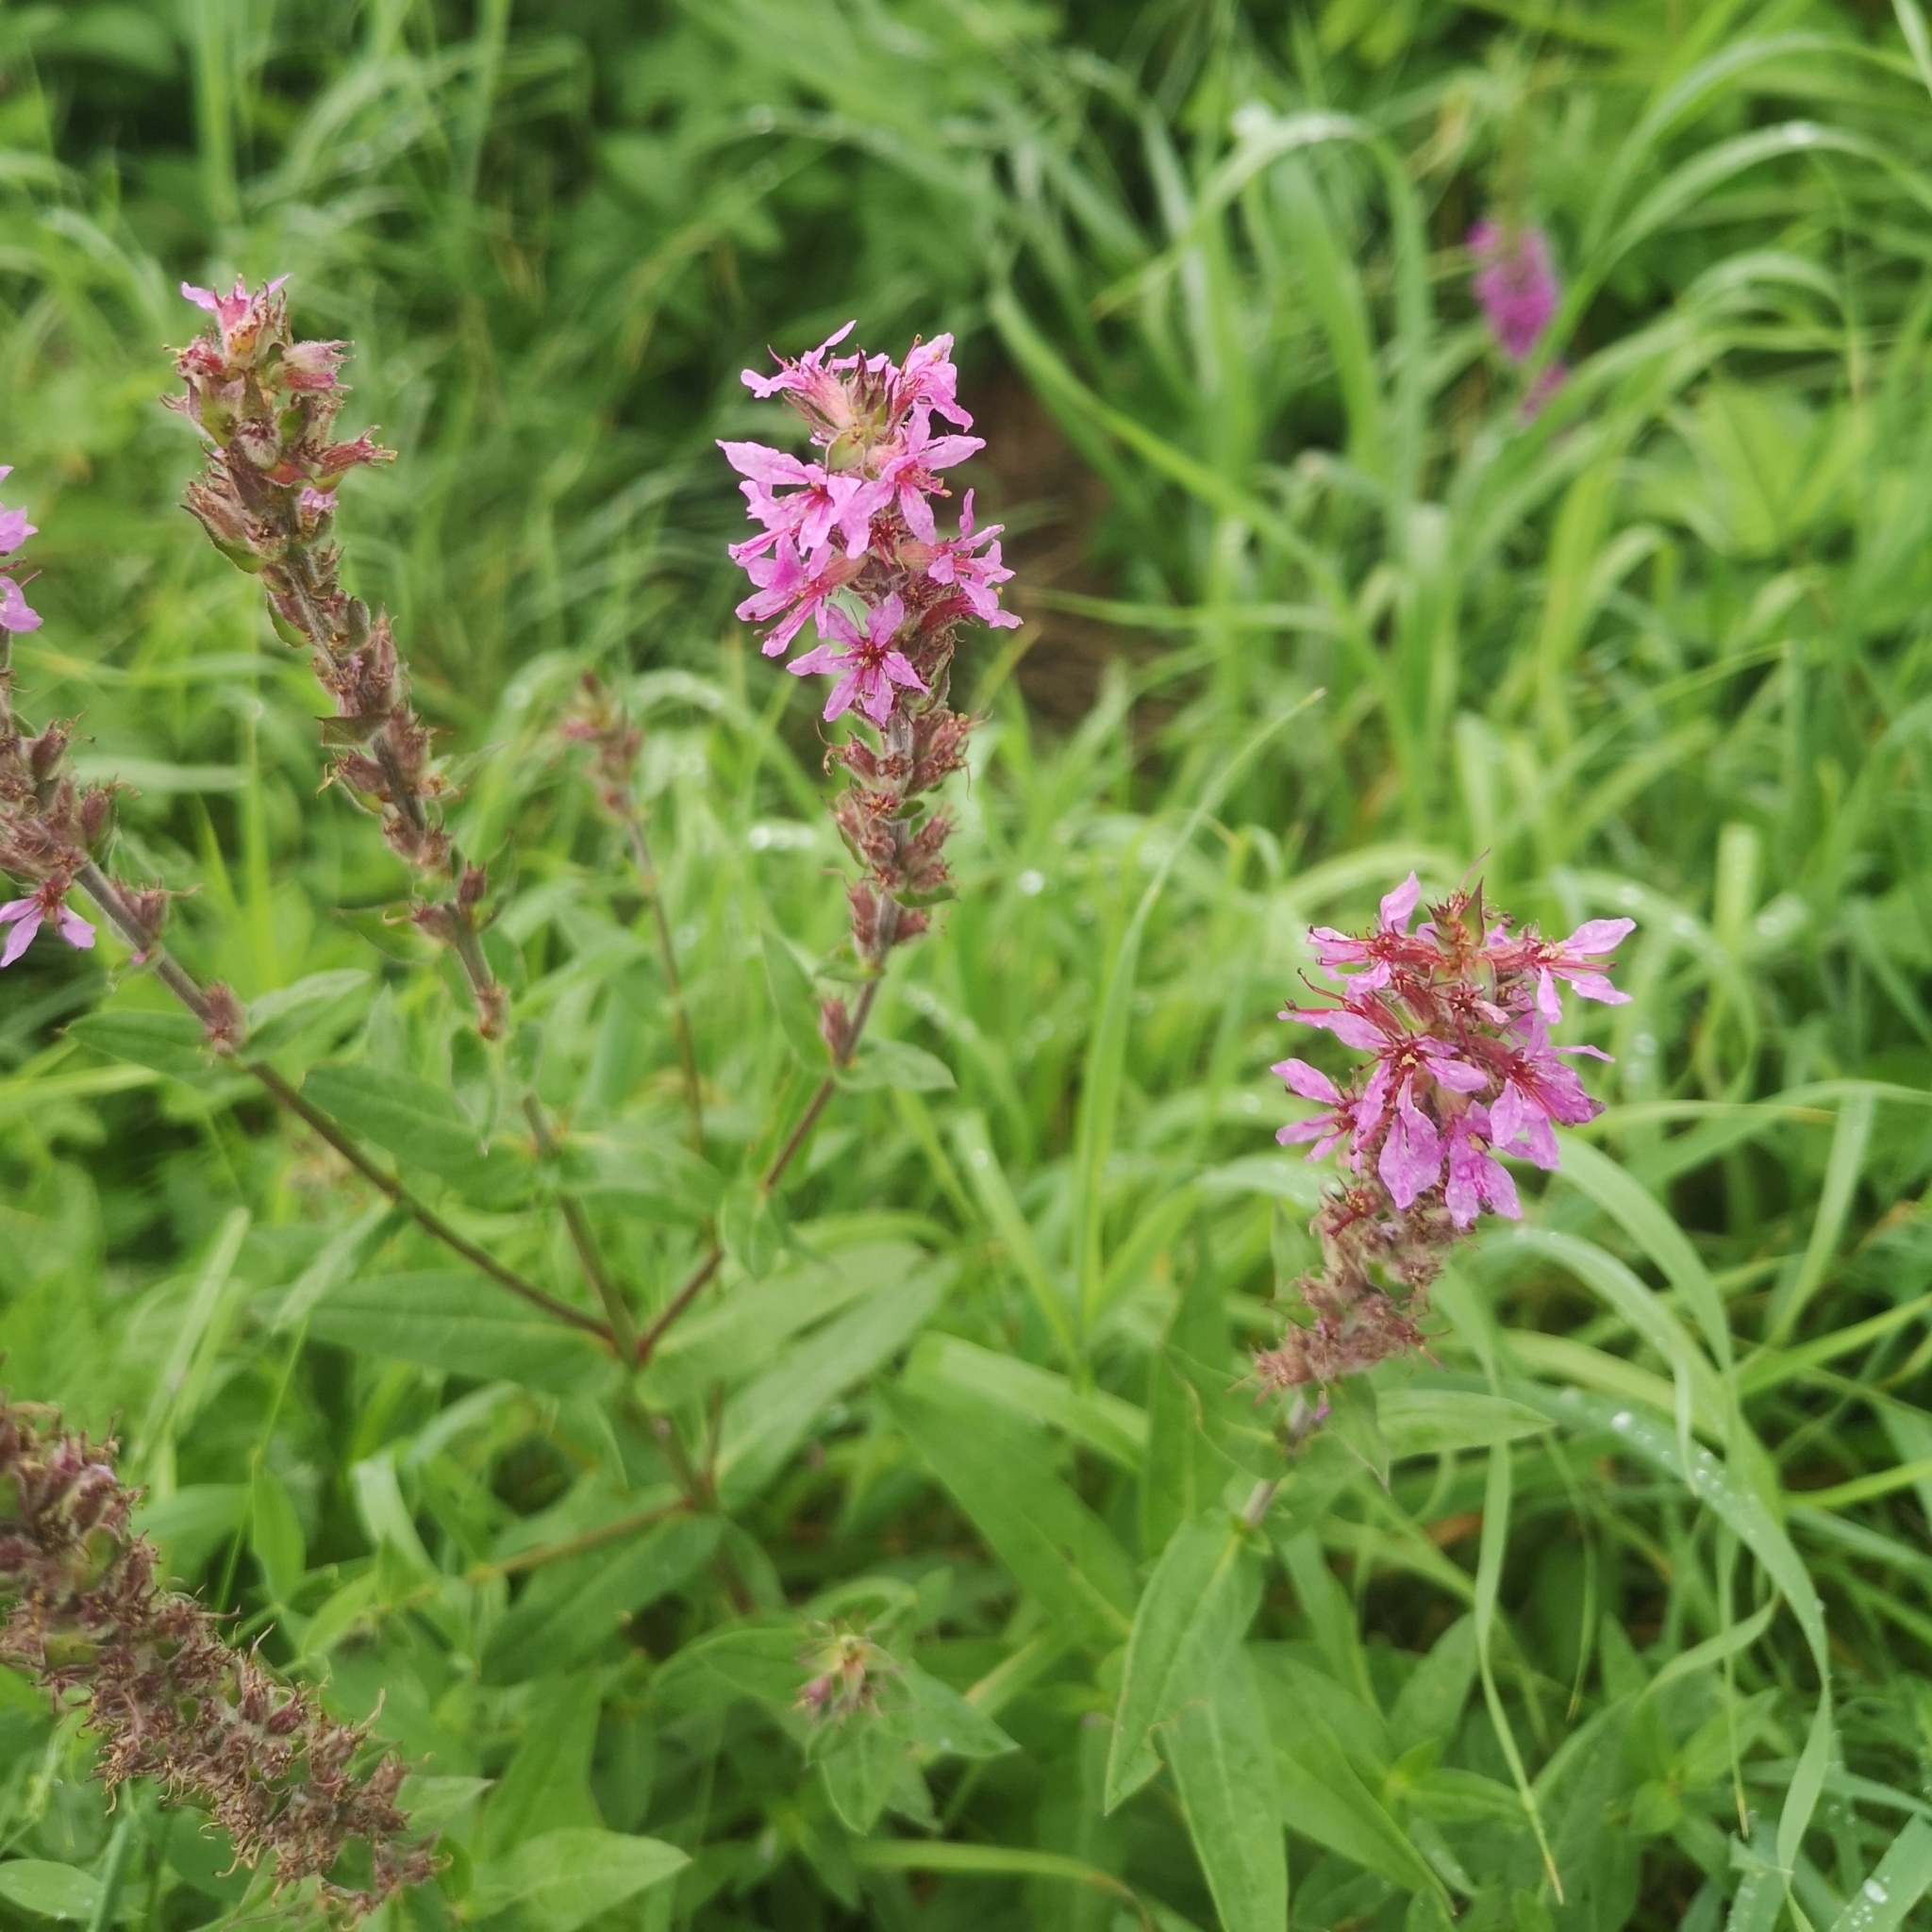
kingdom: Plantae
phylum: Tracheophyta
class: Magnoliopsida
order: Myrtales
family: Lythraceae
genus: Lythrum
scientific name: Lythrum salicaria
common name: Purple loosestrife
